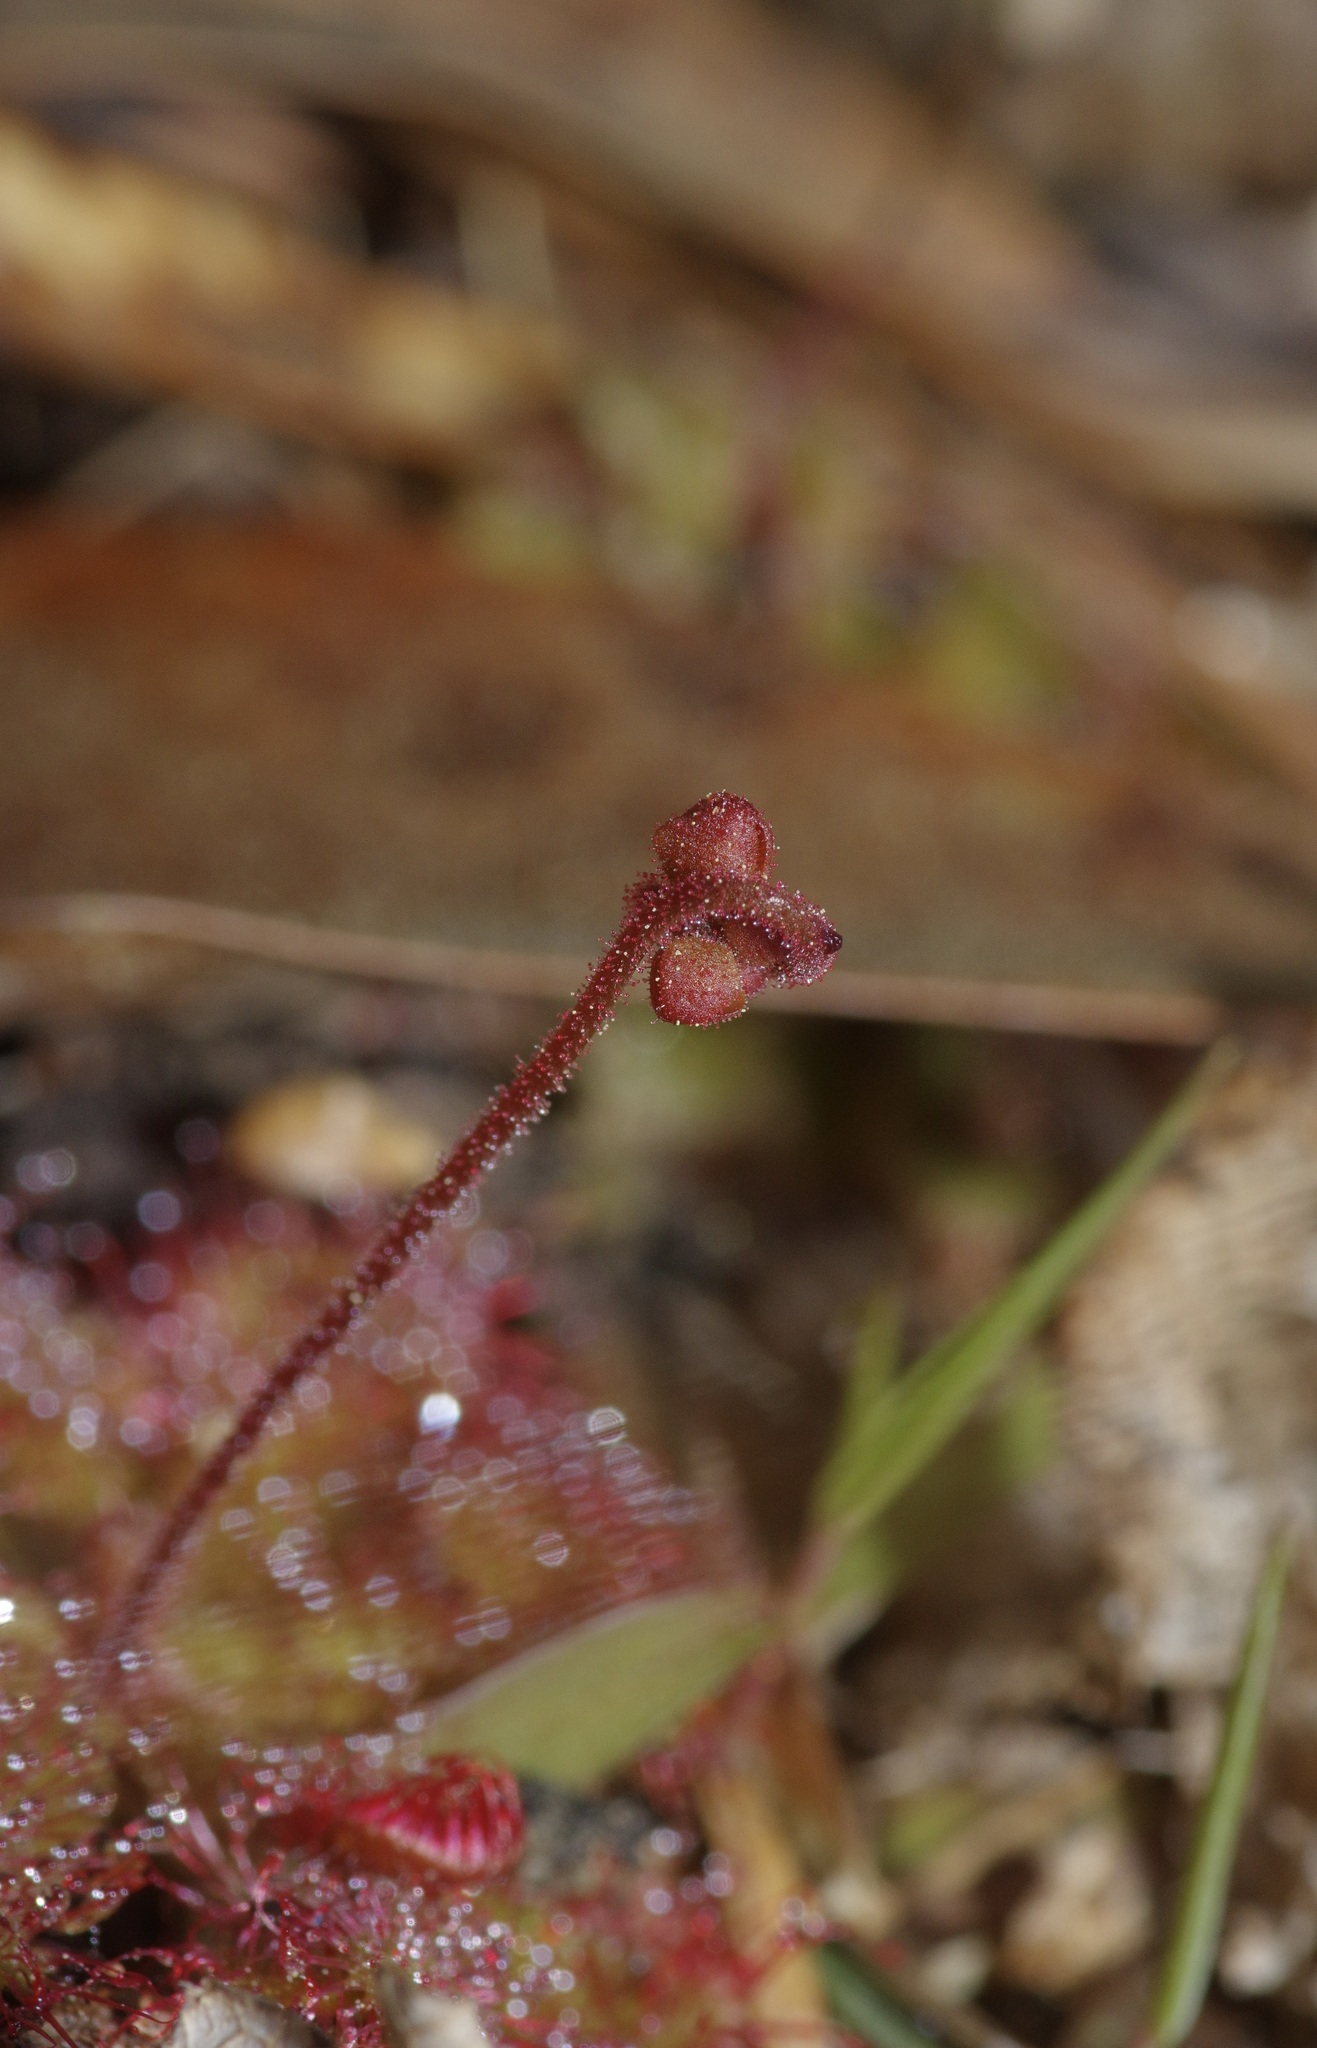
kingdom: Plantae
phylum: Tracheophyta
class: Magnoliopsida
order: Caryophyllales
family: Droseraceae
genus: Drosera
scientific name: Drosera brevifolia
